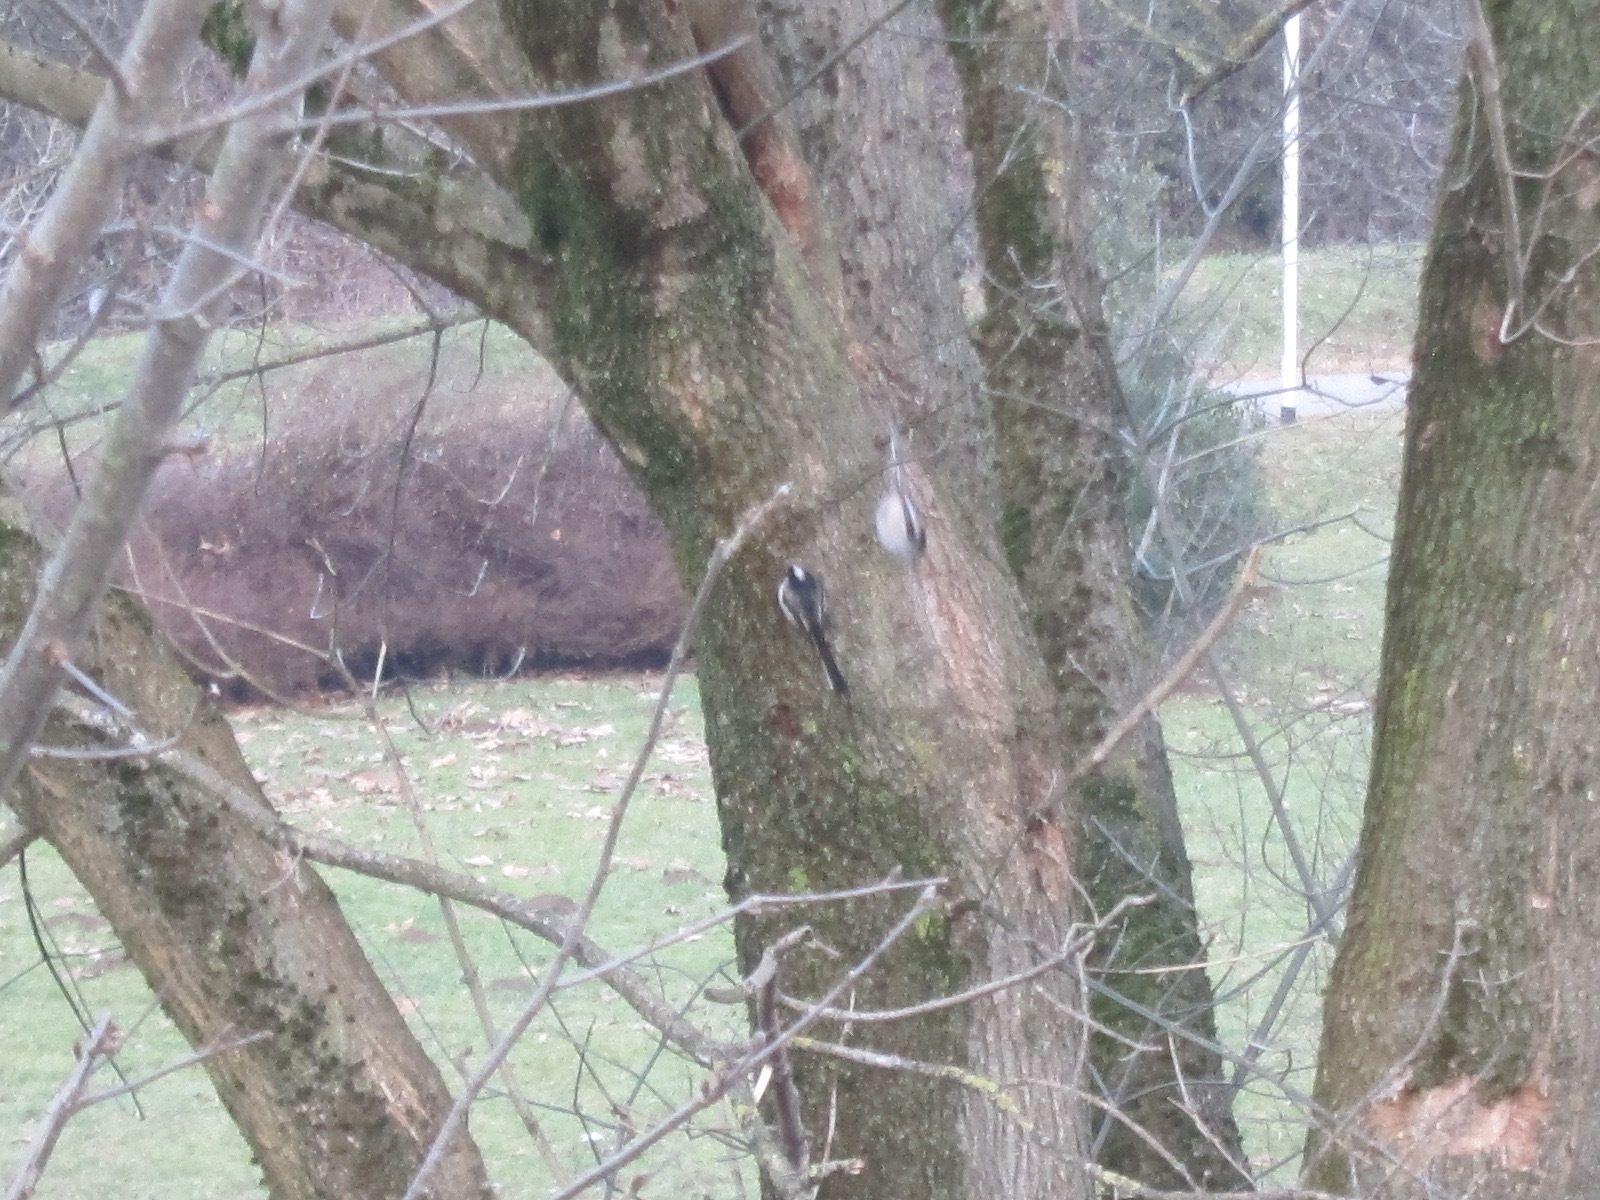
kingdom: Animalia
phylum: Chordata
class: Aves
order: Passeriformes
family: Aegithalidae
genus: Aegithalos
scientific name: Aegithalos caudatus
